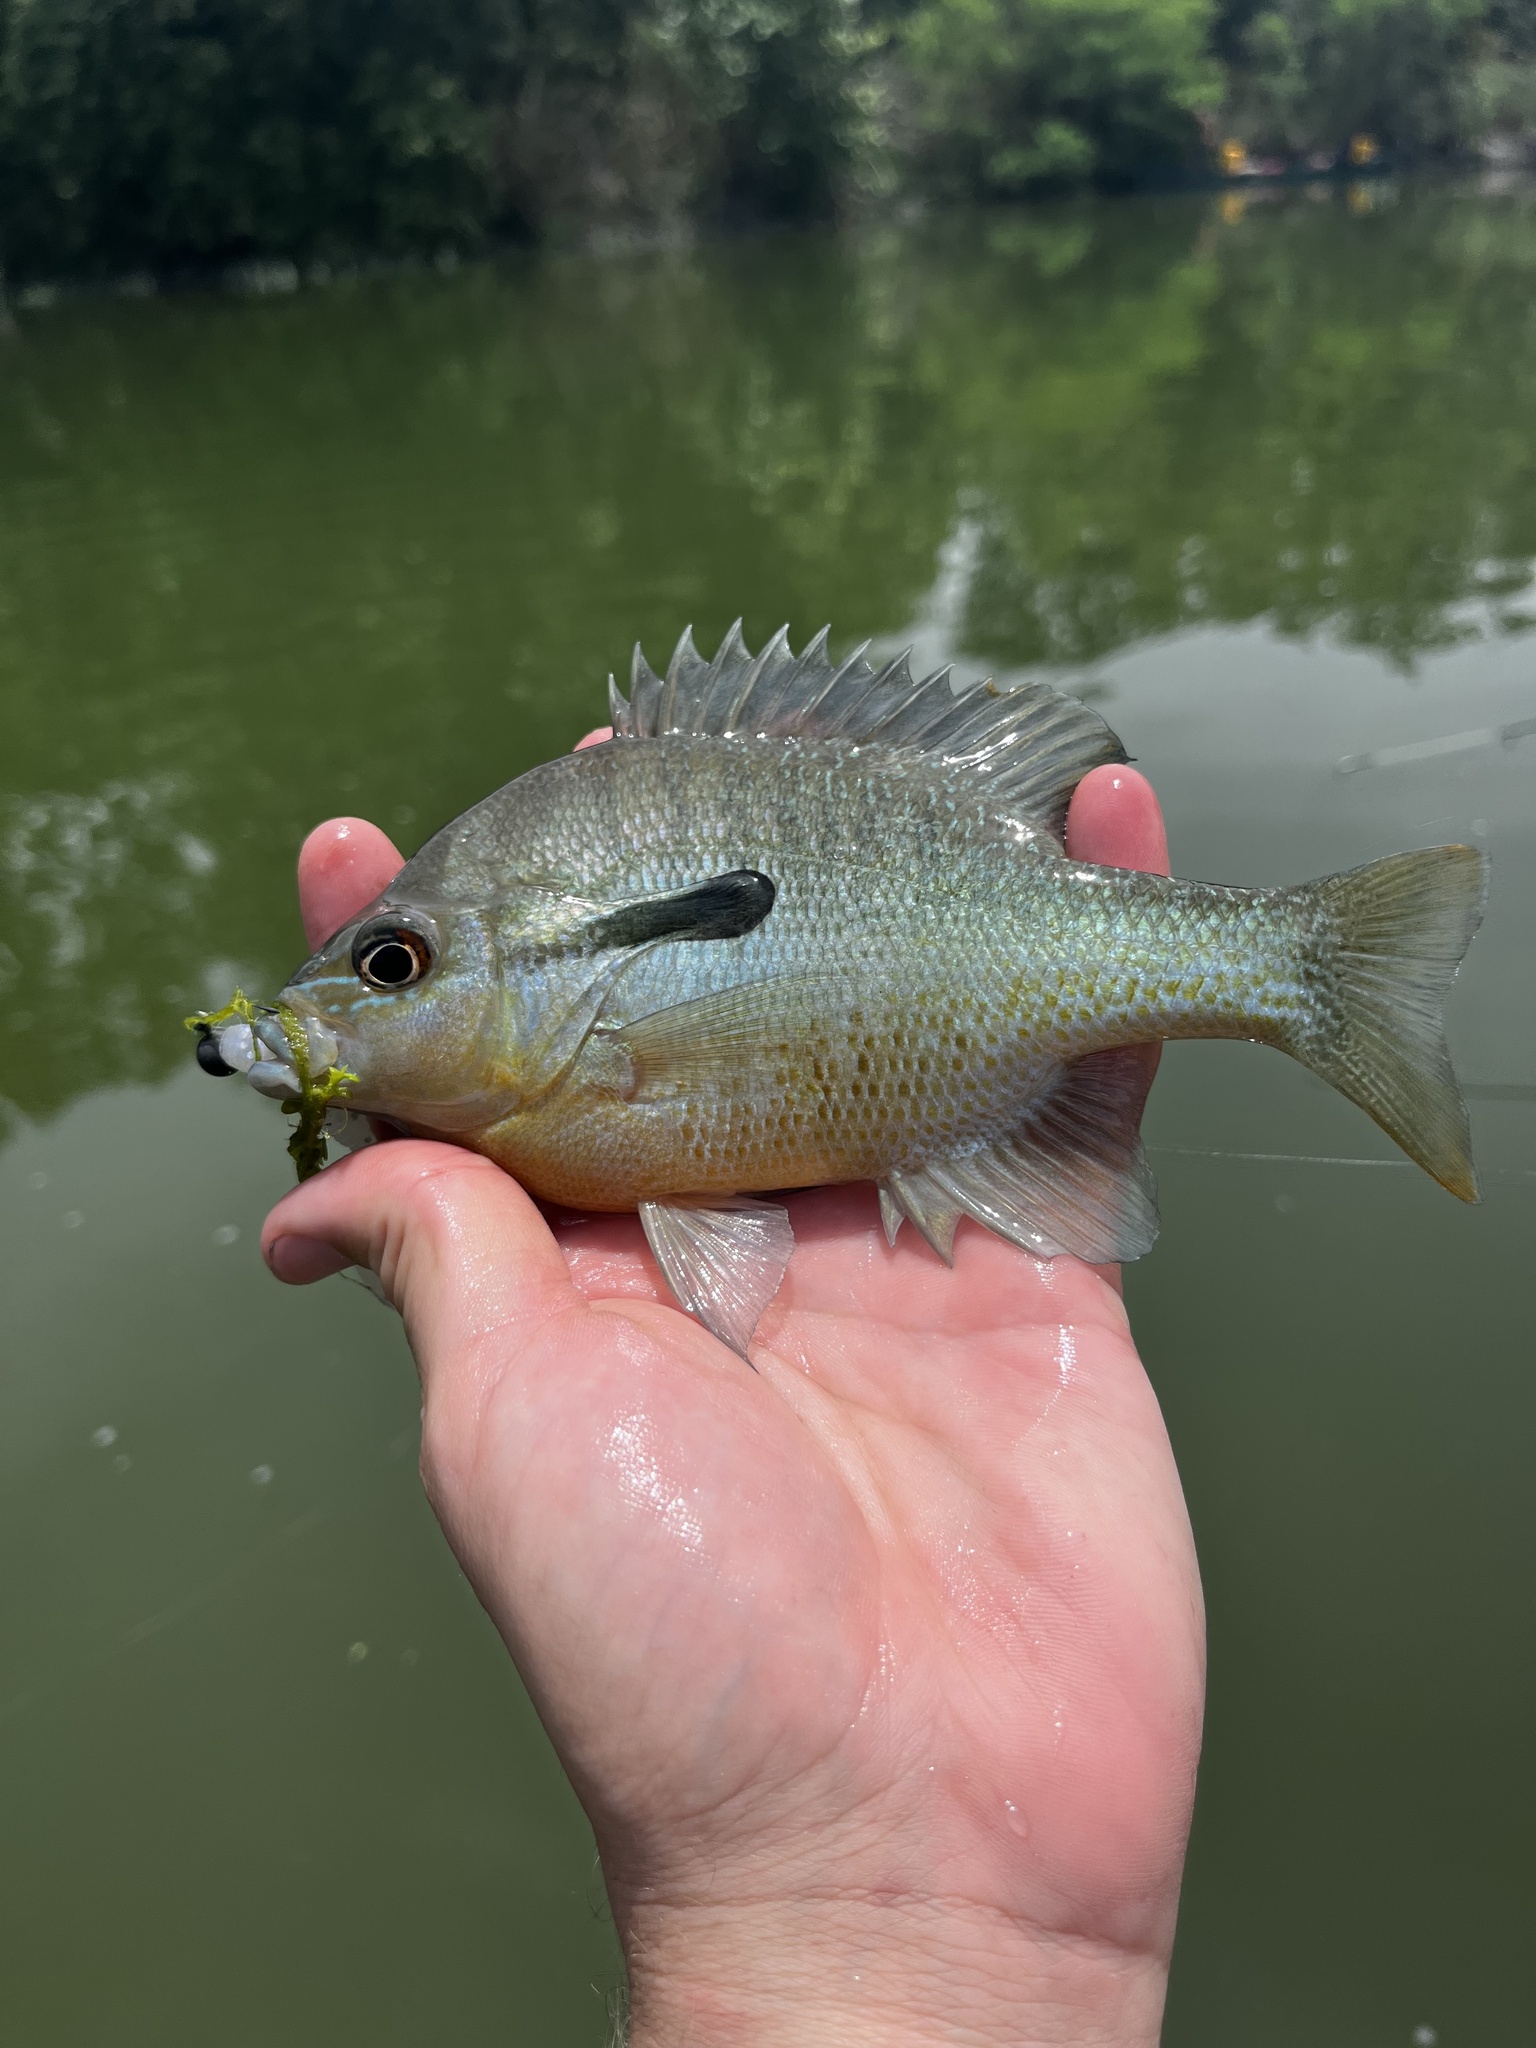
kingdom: Animalia
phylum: Chordata
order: Perciformes
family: Centrarchidae
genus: Lepomis
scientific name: Lepomis auritus
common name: Redbreast sunfish
